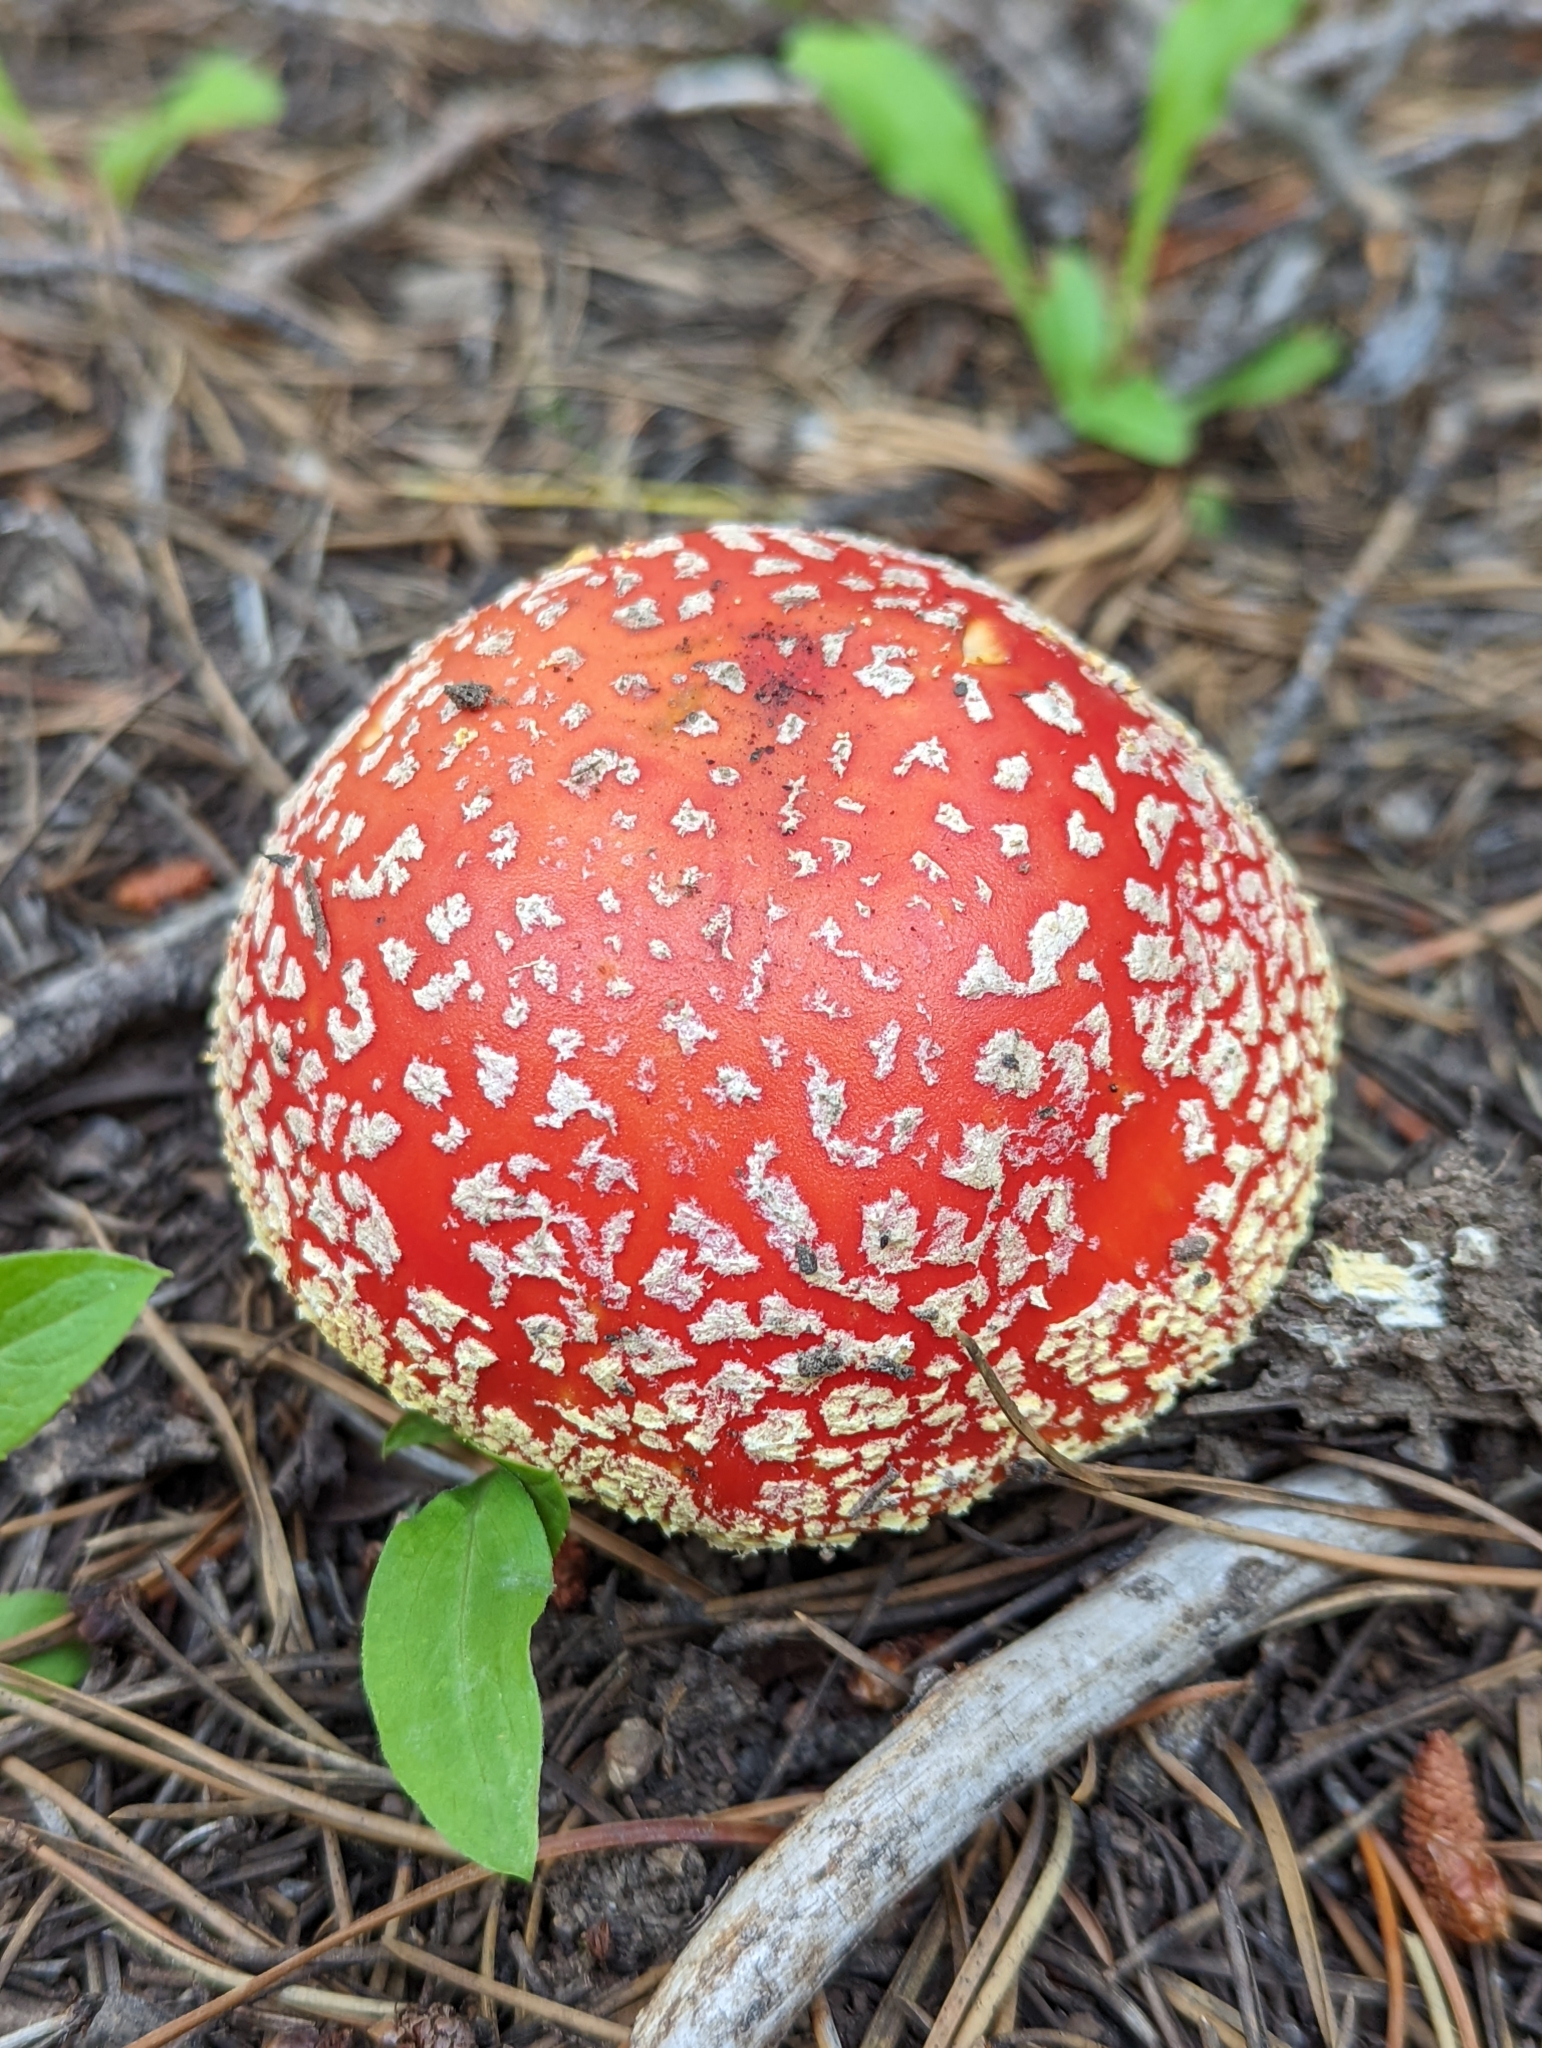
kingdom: Fungi
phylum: Basidiomycota
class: Agaricomycetes
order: Agaricales
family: Amanitaceae
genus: Amanita
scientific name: Amanita muscaria
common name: Fly agaric
